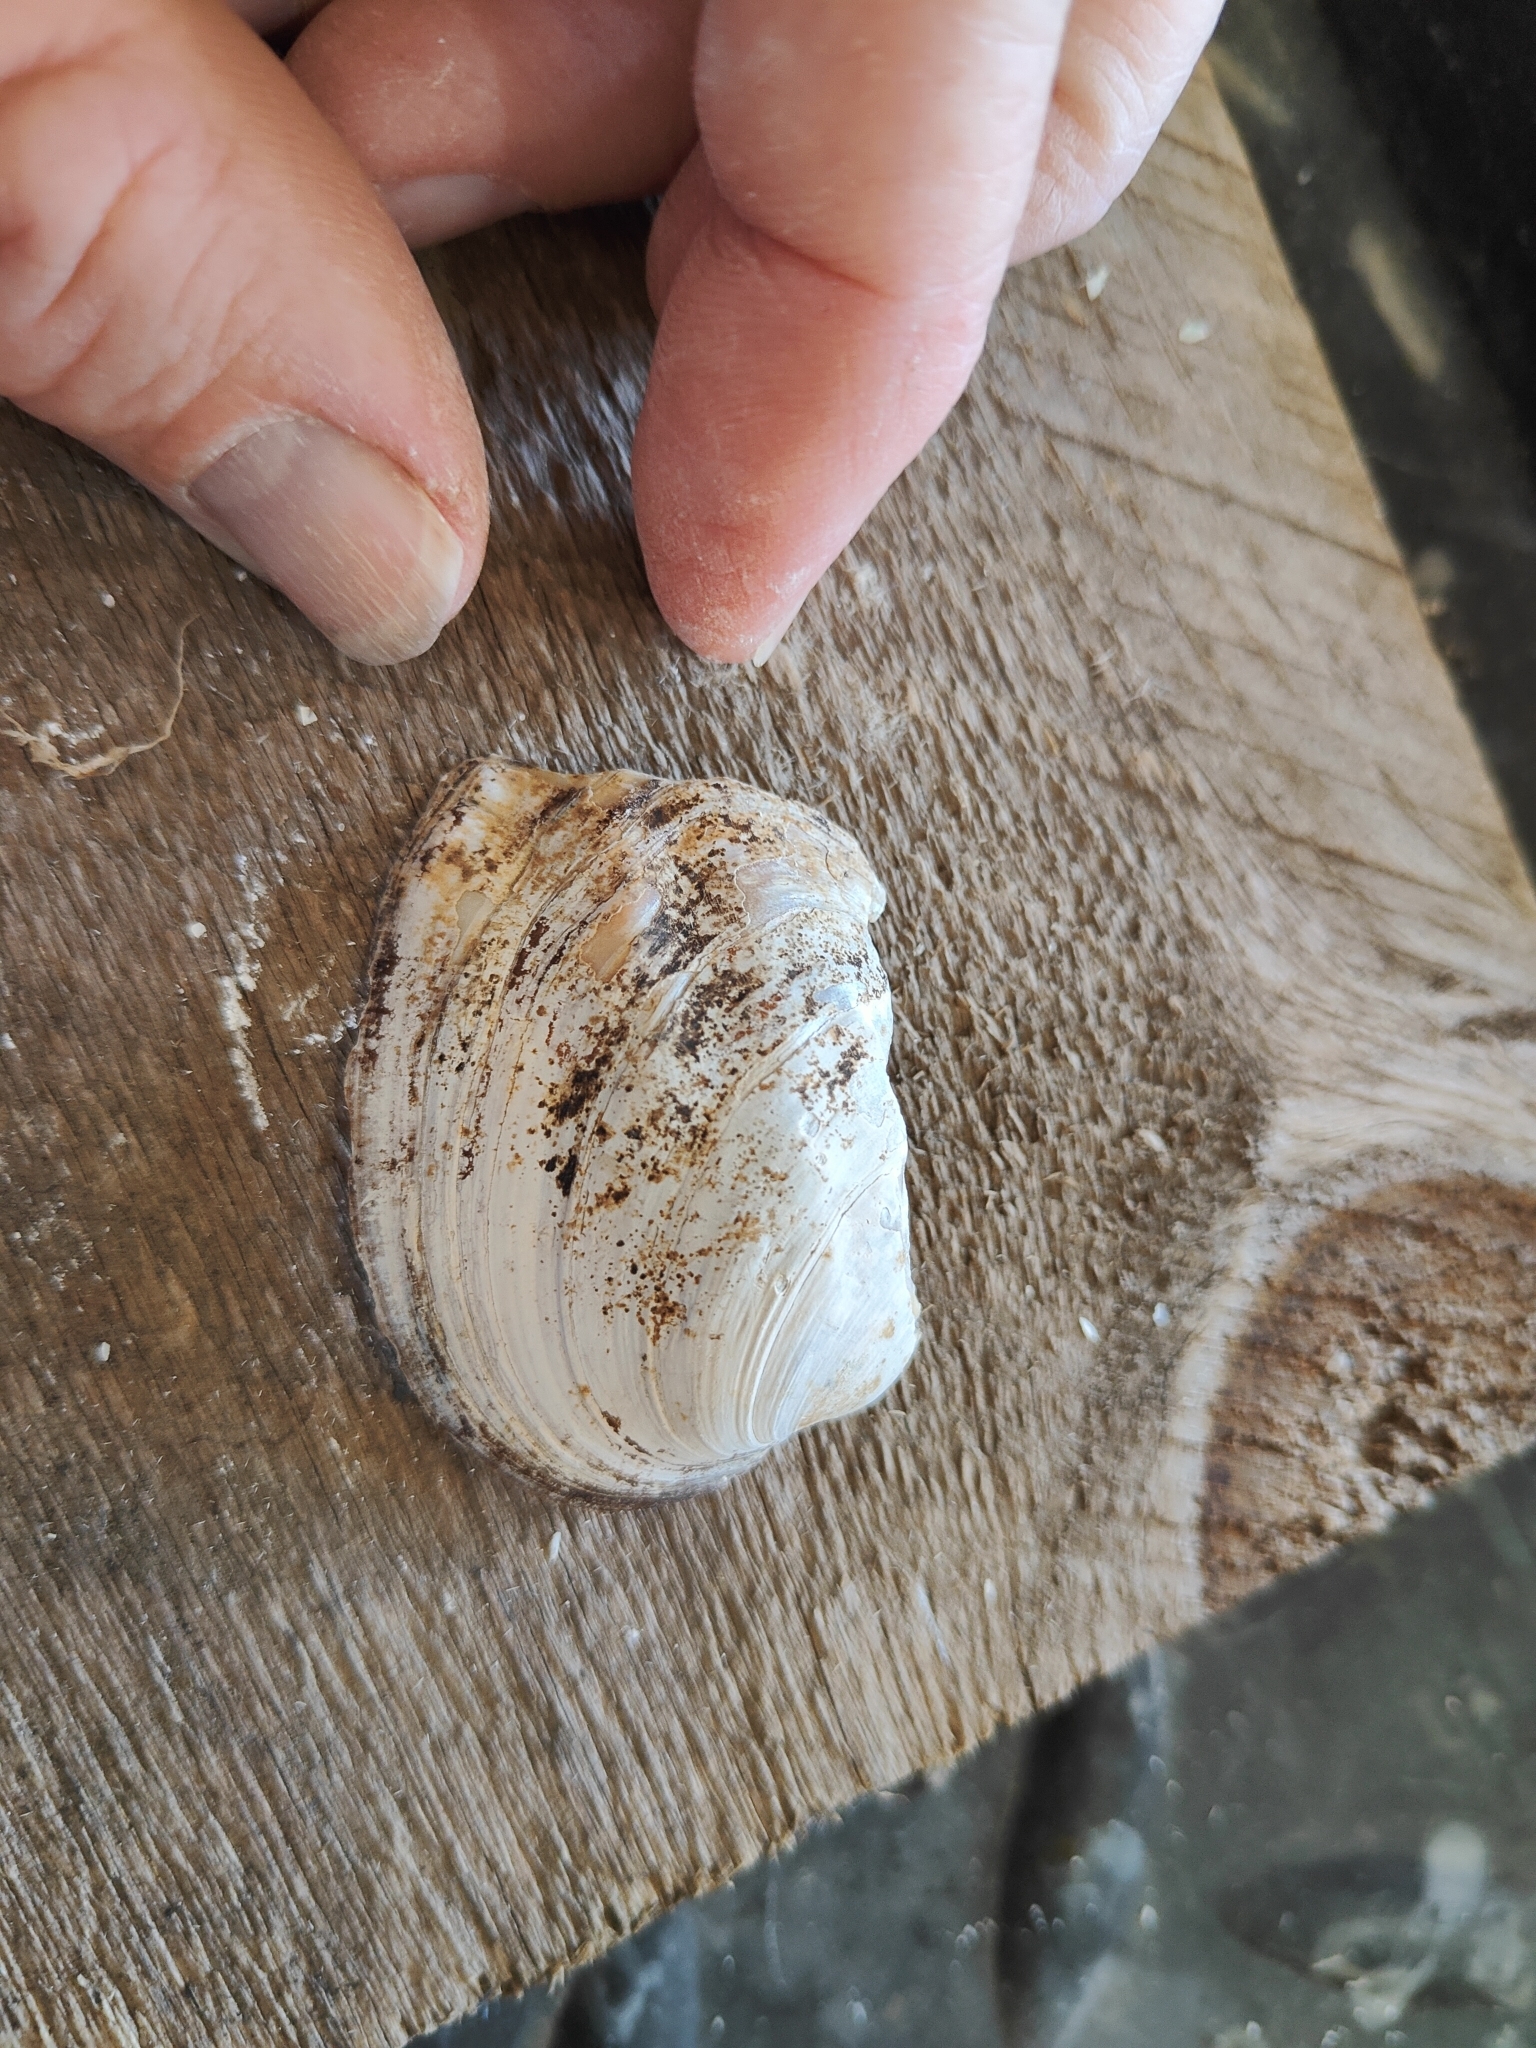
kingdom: Animalia
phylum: Mollusca
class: Bivalvia
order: Unionida
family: Unionidae
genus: Amblema
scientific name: Amblema plicata
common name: Threeridge
